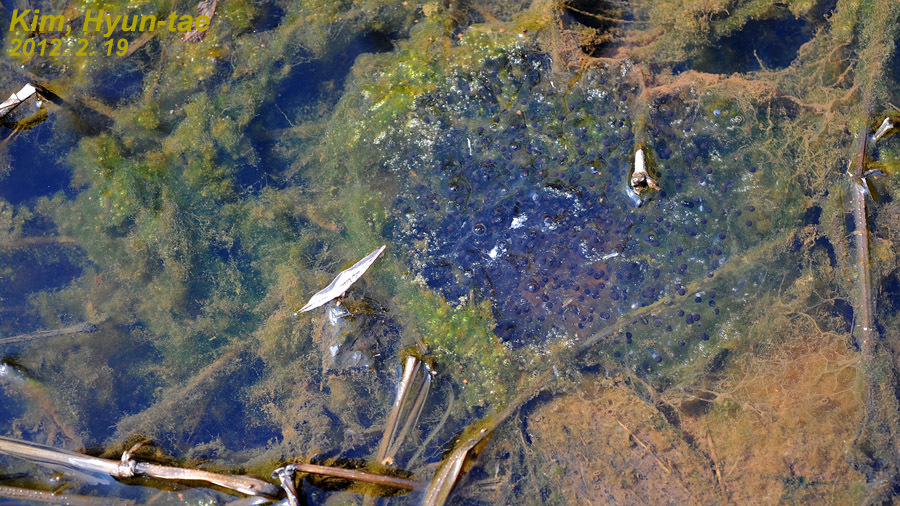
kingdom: Animalia
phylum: Chordata
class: Amphibia
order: Anura
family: Ranidae
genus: Rana
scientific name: Rana uenoi
